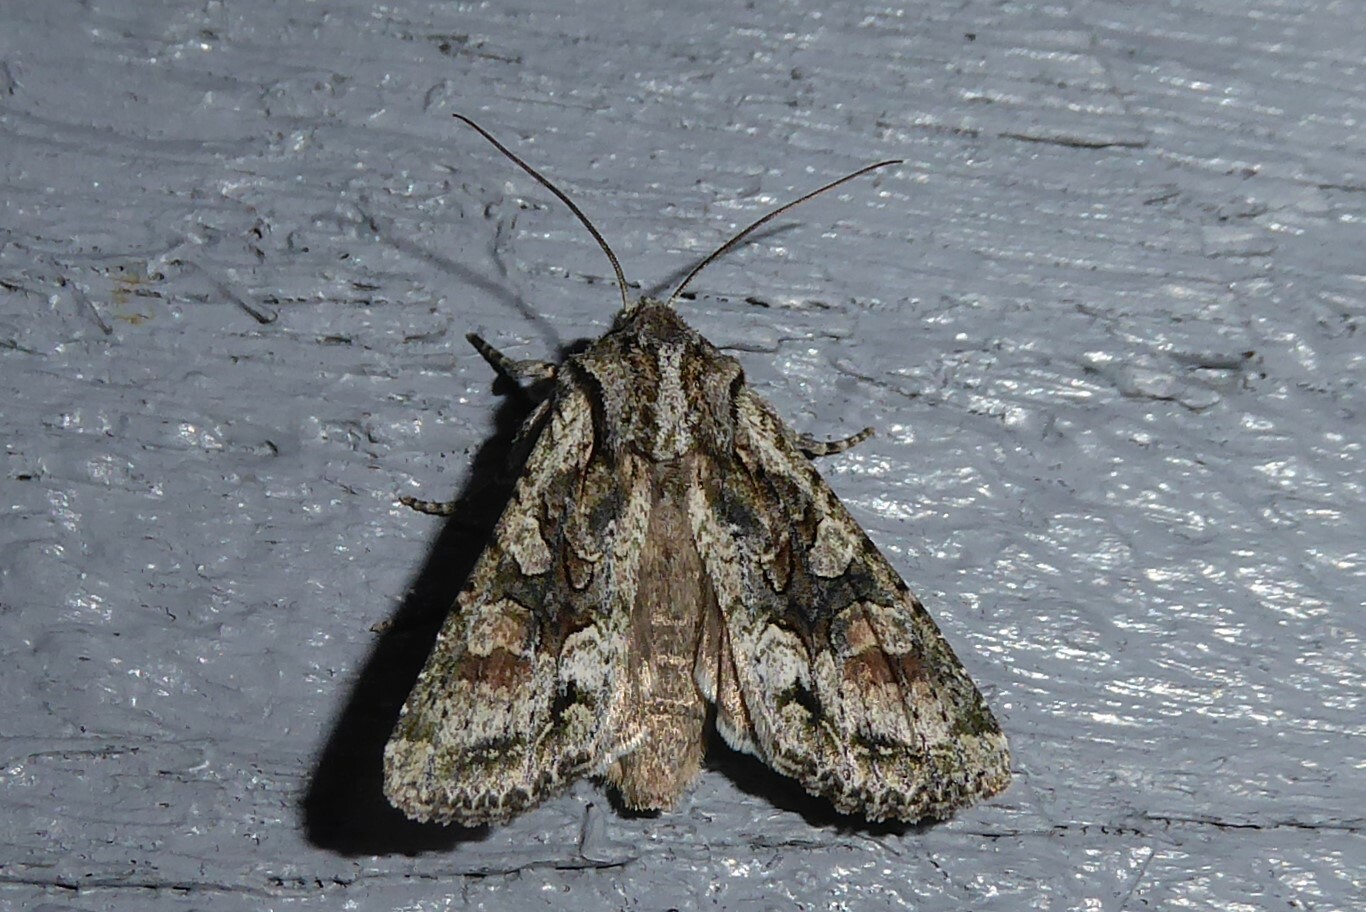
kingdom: Animalia
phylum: Arthropoda
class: Insecta
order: Lepidoptera
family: Noctuidae
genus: Ichneutica
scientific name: Ichneutica mutans
